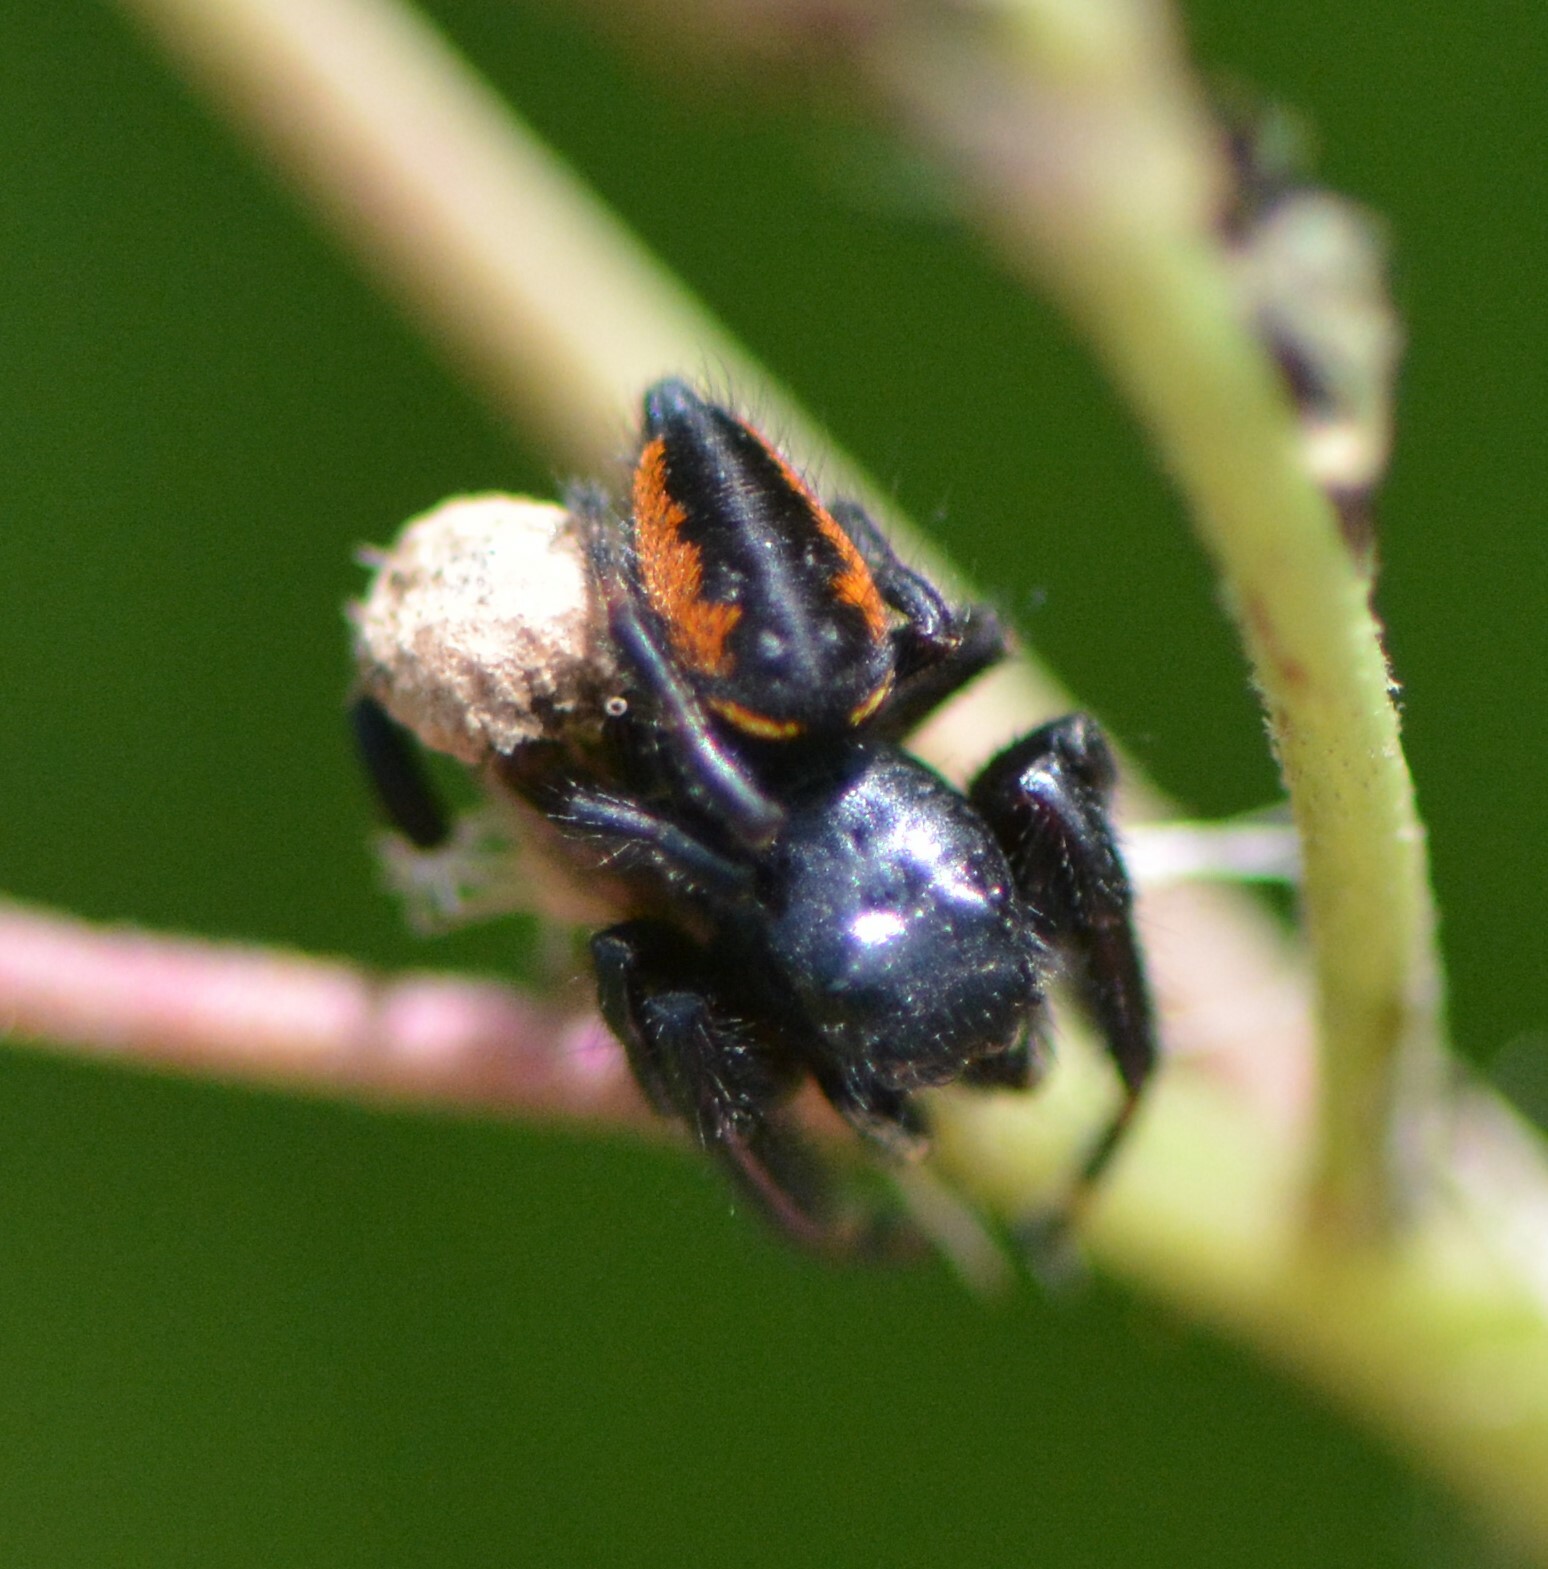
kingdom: Animalia
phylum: Arthropoda
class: Arachnida
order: Araneae
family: Salticidae
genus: Phidippus
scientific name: Phidippus clarus
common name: Brilliant jumping spider
